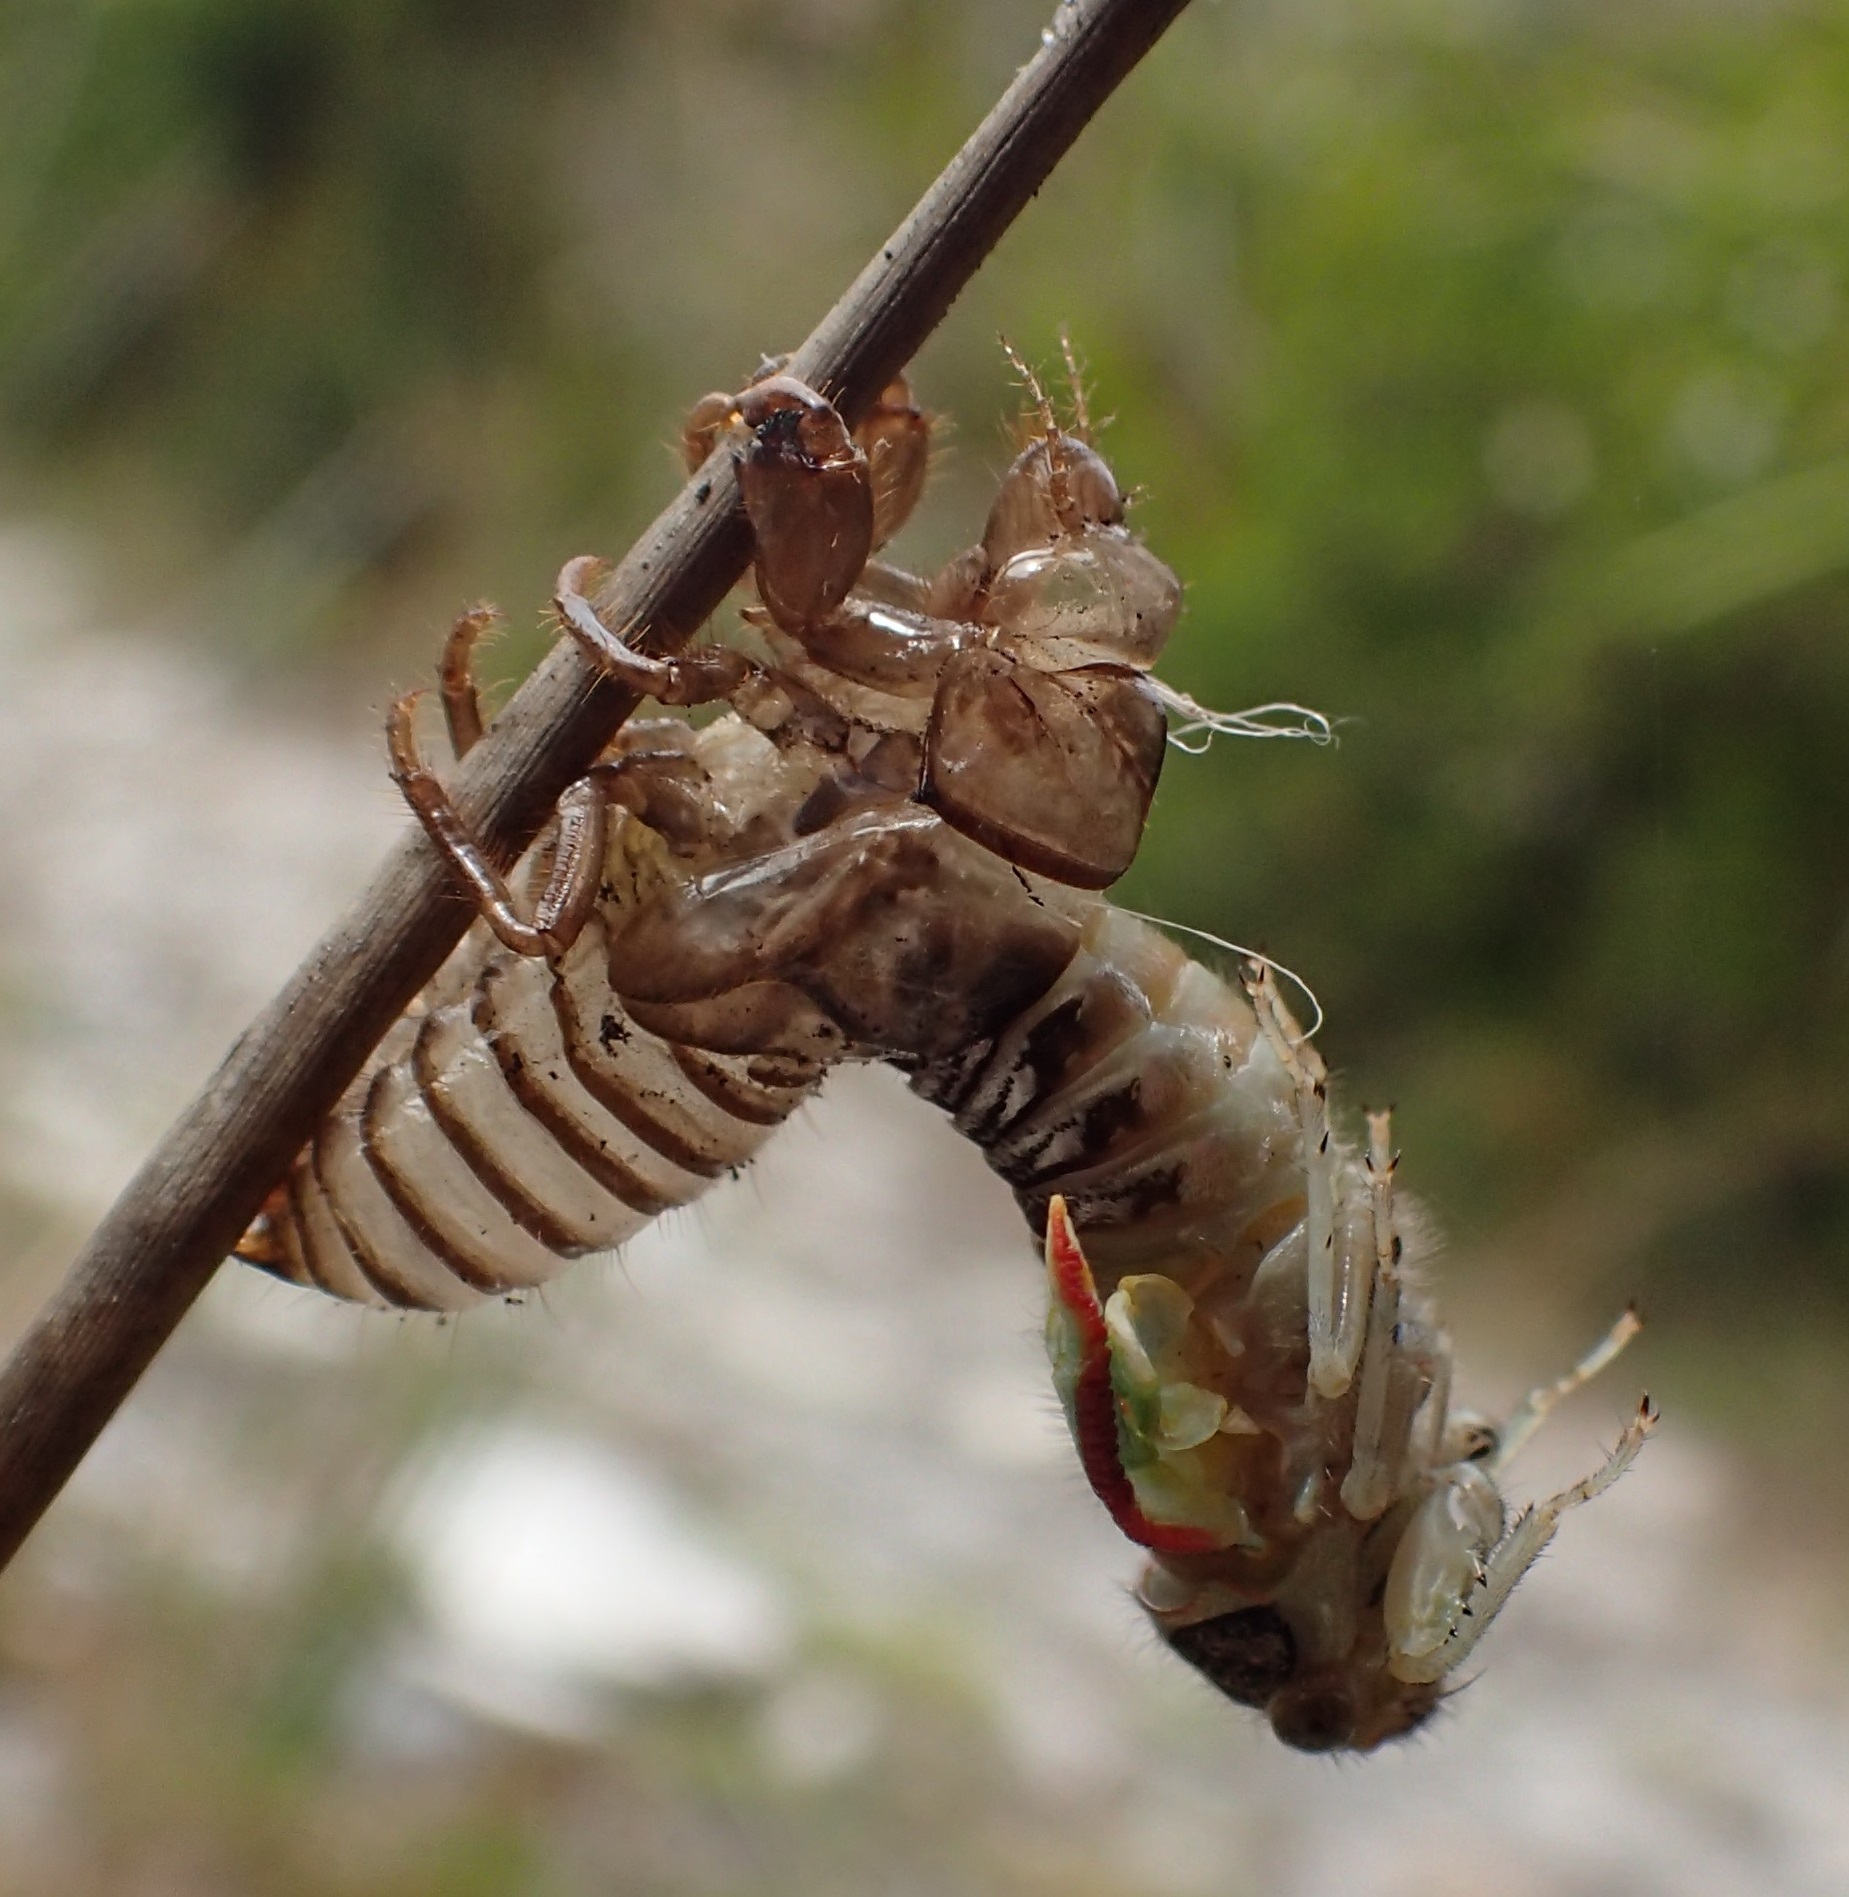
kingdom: Animalia
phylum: Arthropoda
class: Insecta
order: Hemiptera
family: Cicadidae
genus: Diemeniana
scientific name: Diemeniana euronotiana
